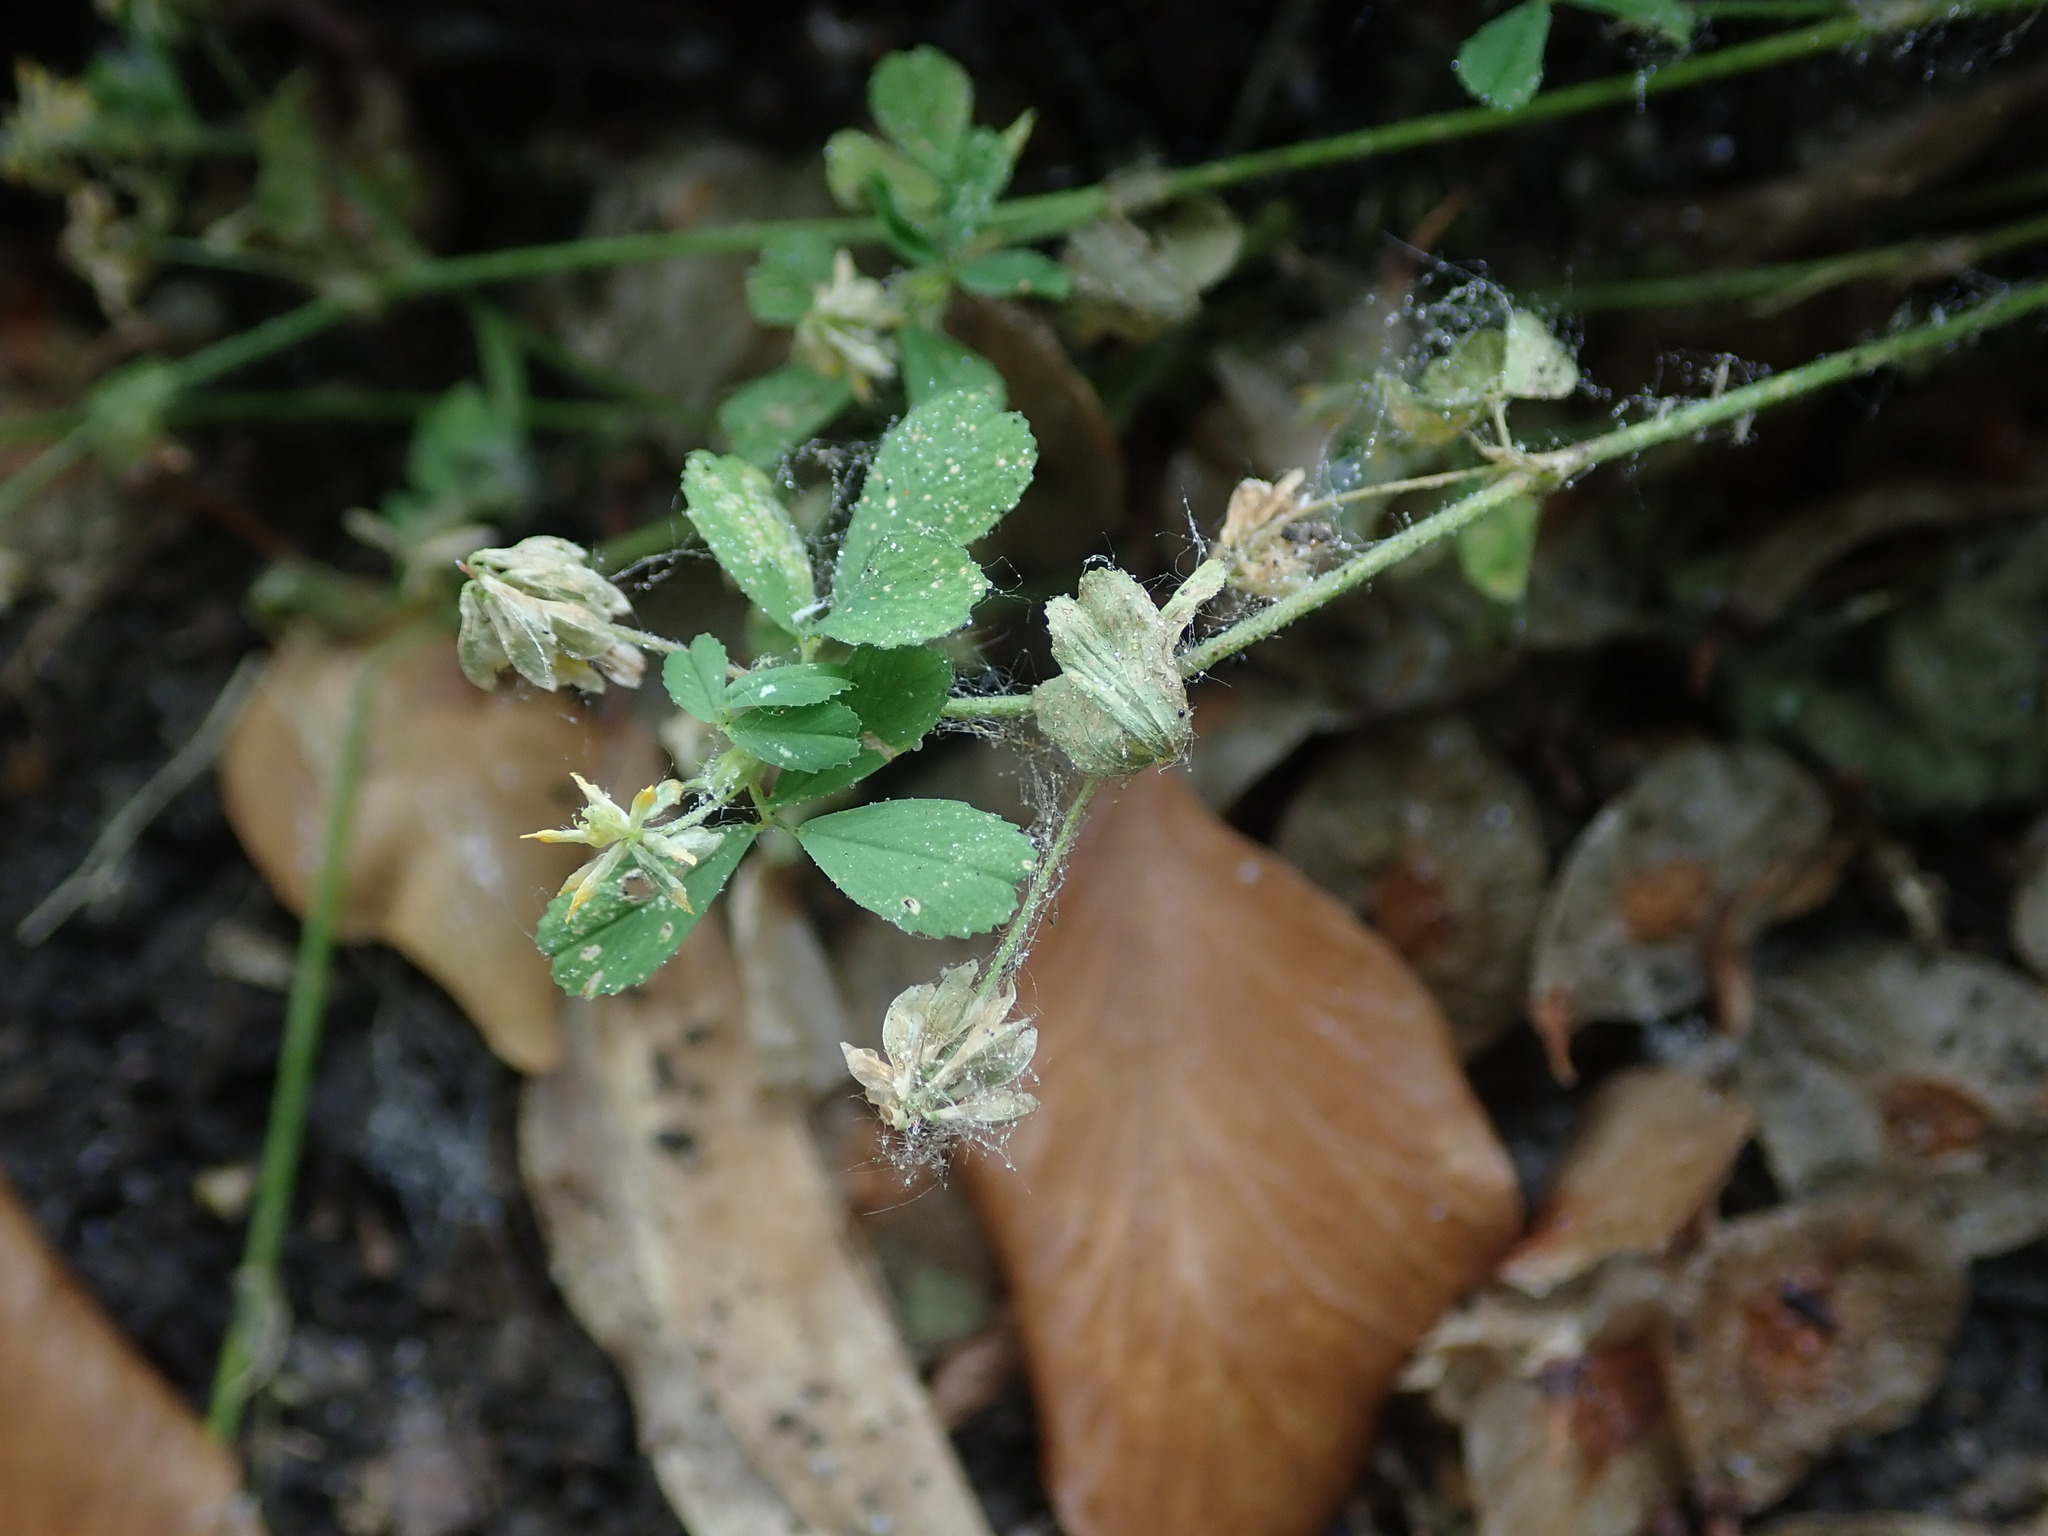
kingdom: Plantae
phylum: Tracheophyta
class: Magnoliopsida
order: Fabales
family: Fabaceae
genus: Trifolium
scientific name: Trifolium dubium
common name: Suckling clover
